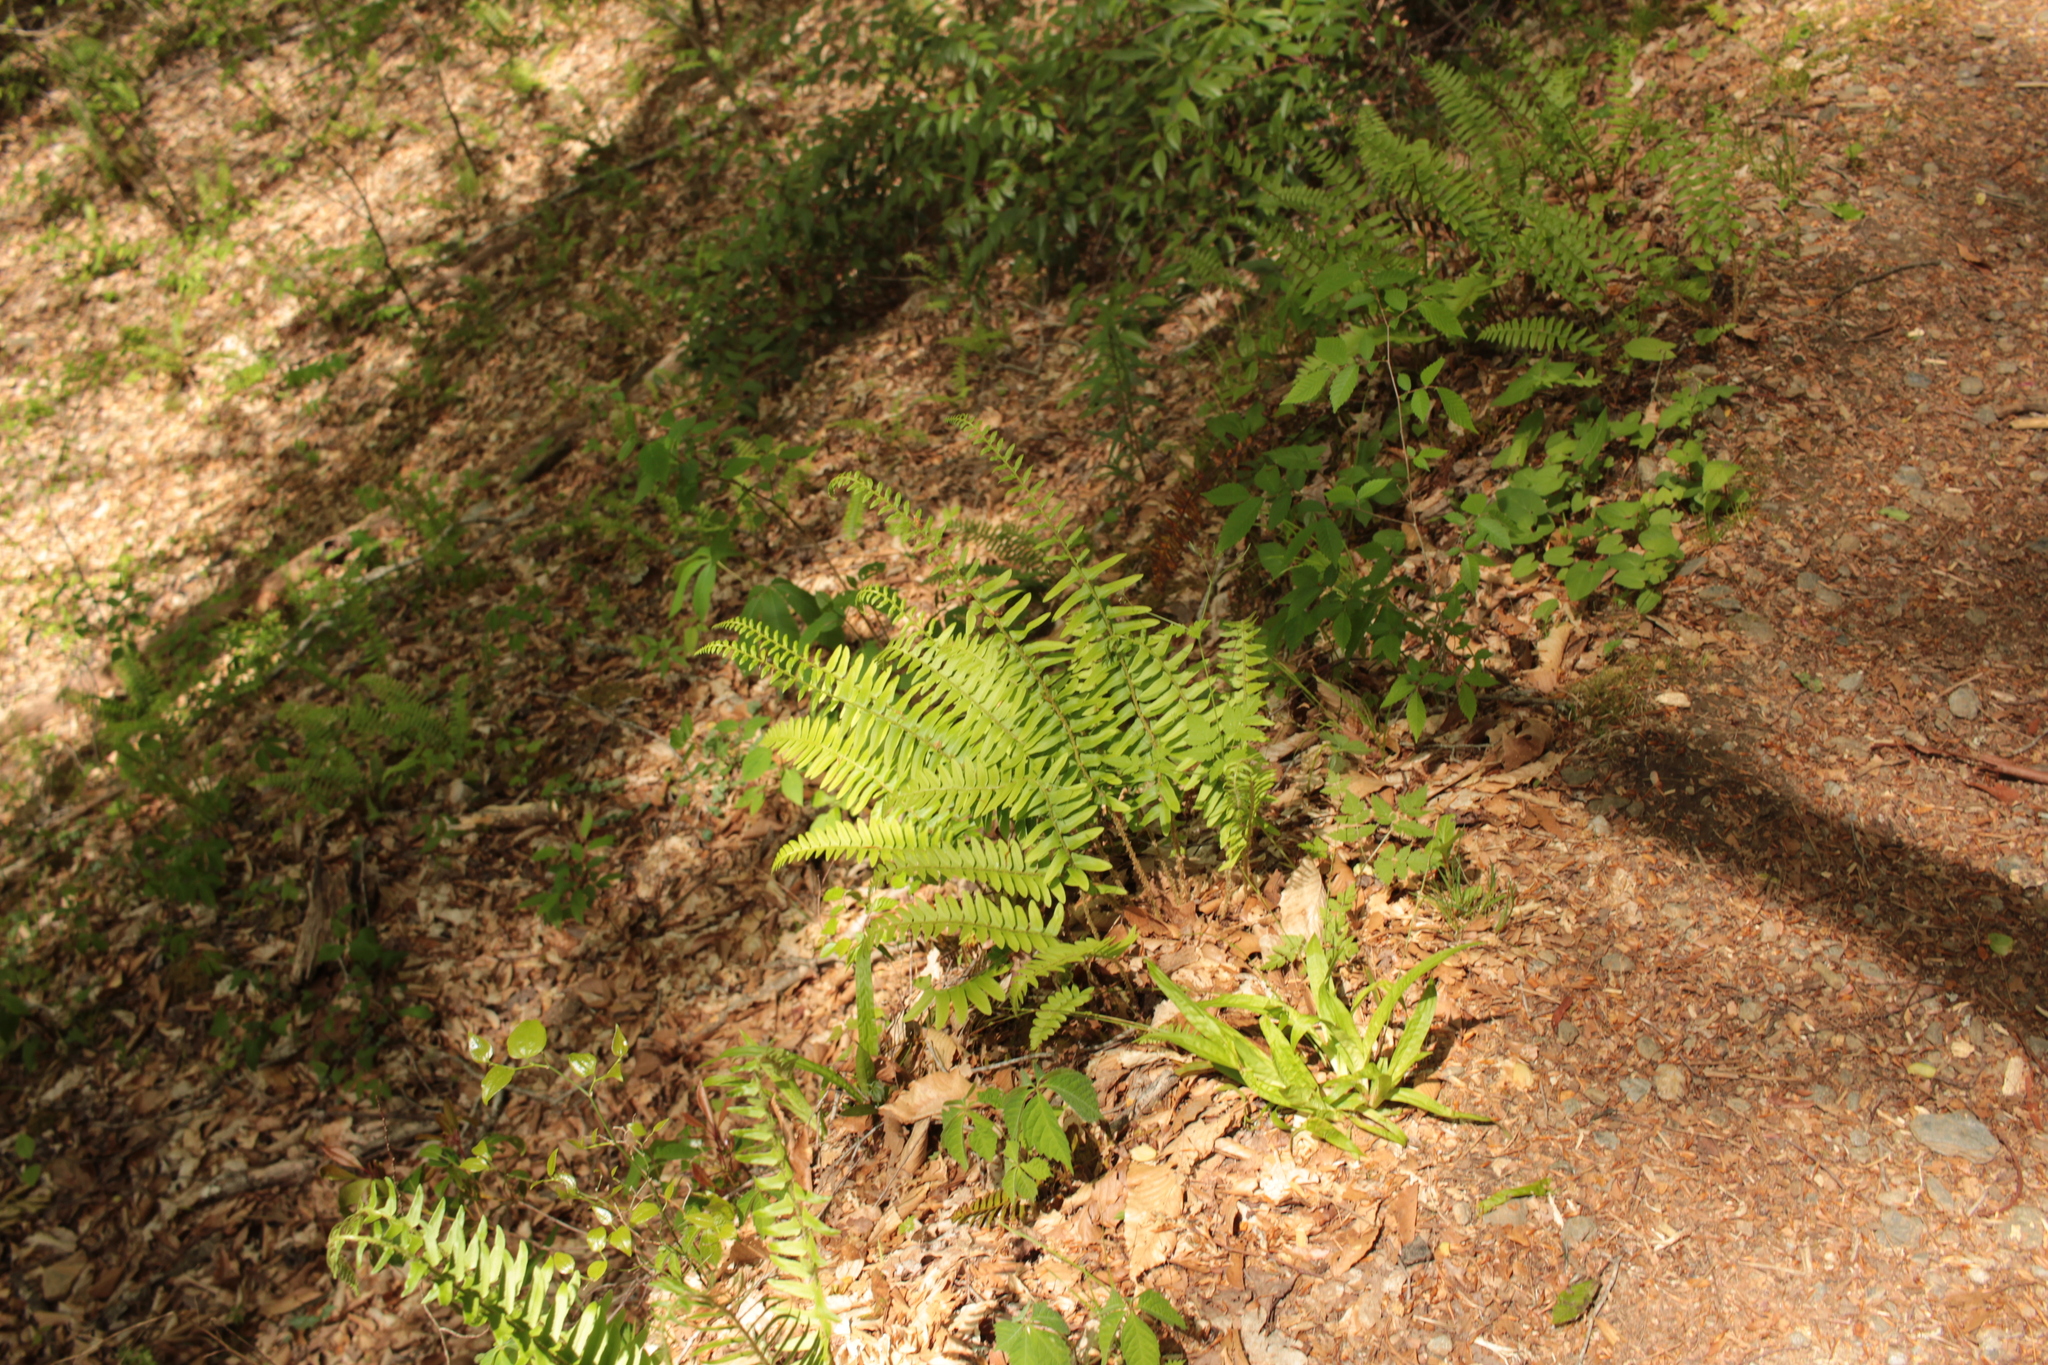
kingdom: Plantae
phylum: Tracheophyta
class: Polypodiopsida
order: Polypodiales
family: Dryopteridaceae
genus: Polystichum
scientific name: Polystichum acrostichoides
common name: Christmas fern
